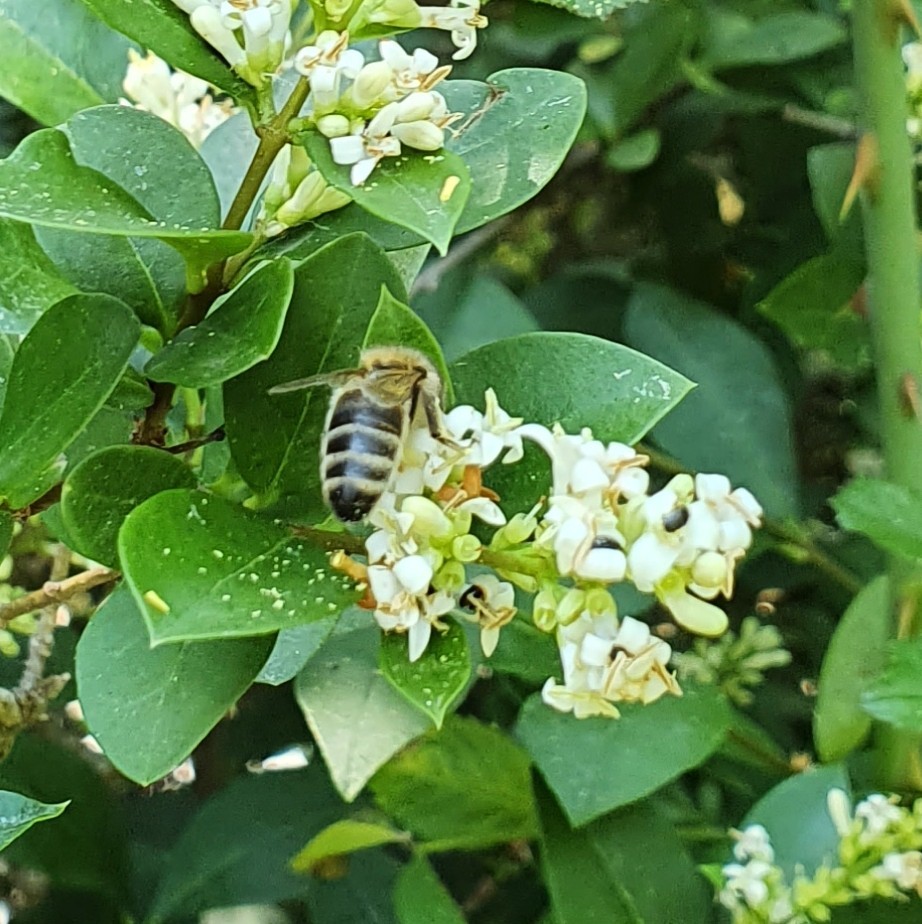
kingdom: Animalia
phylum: Arthropoda
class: Insecta
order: Hymenoptera
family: Apidae
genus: Apis
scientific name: Apis mellifera
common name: Honey bee
